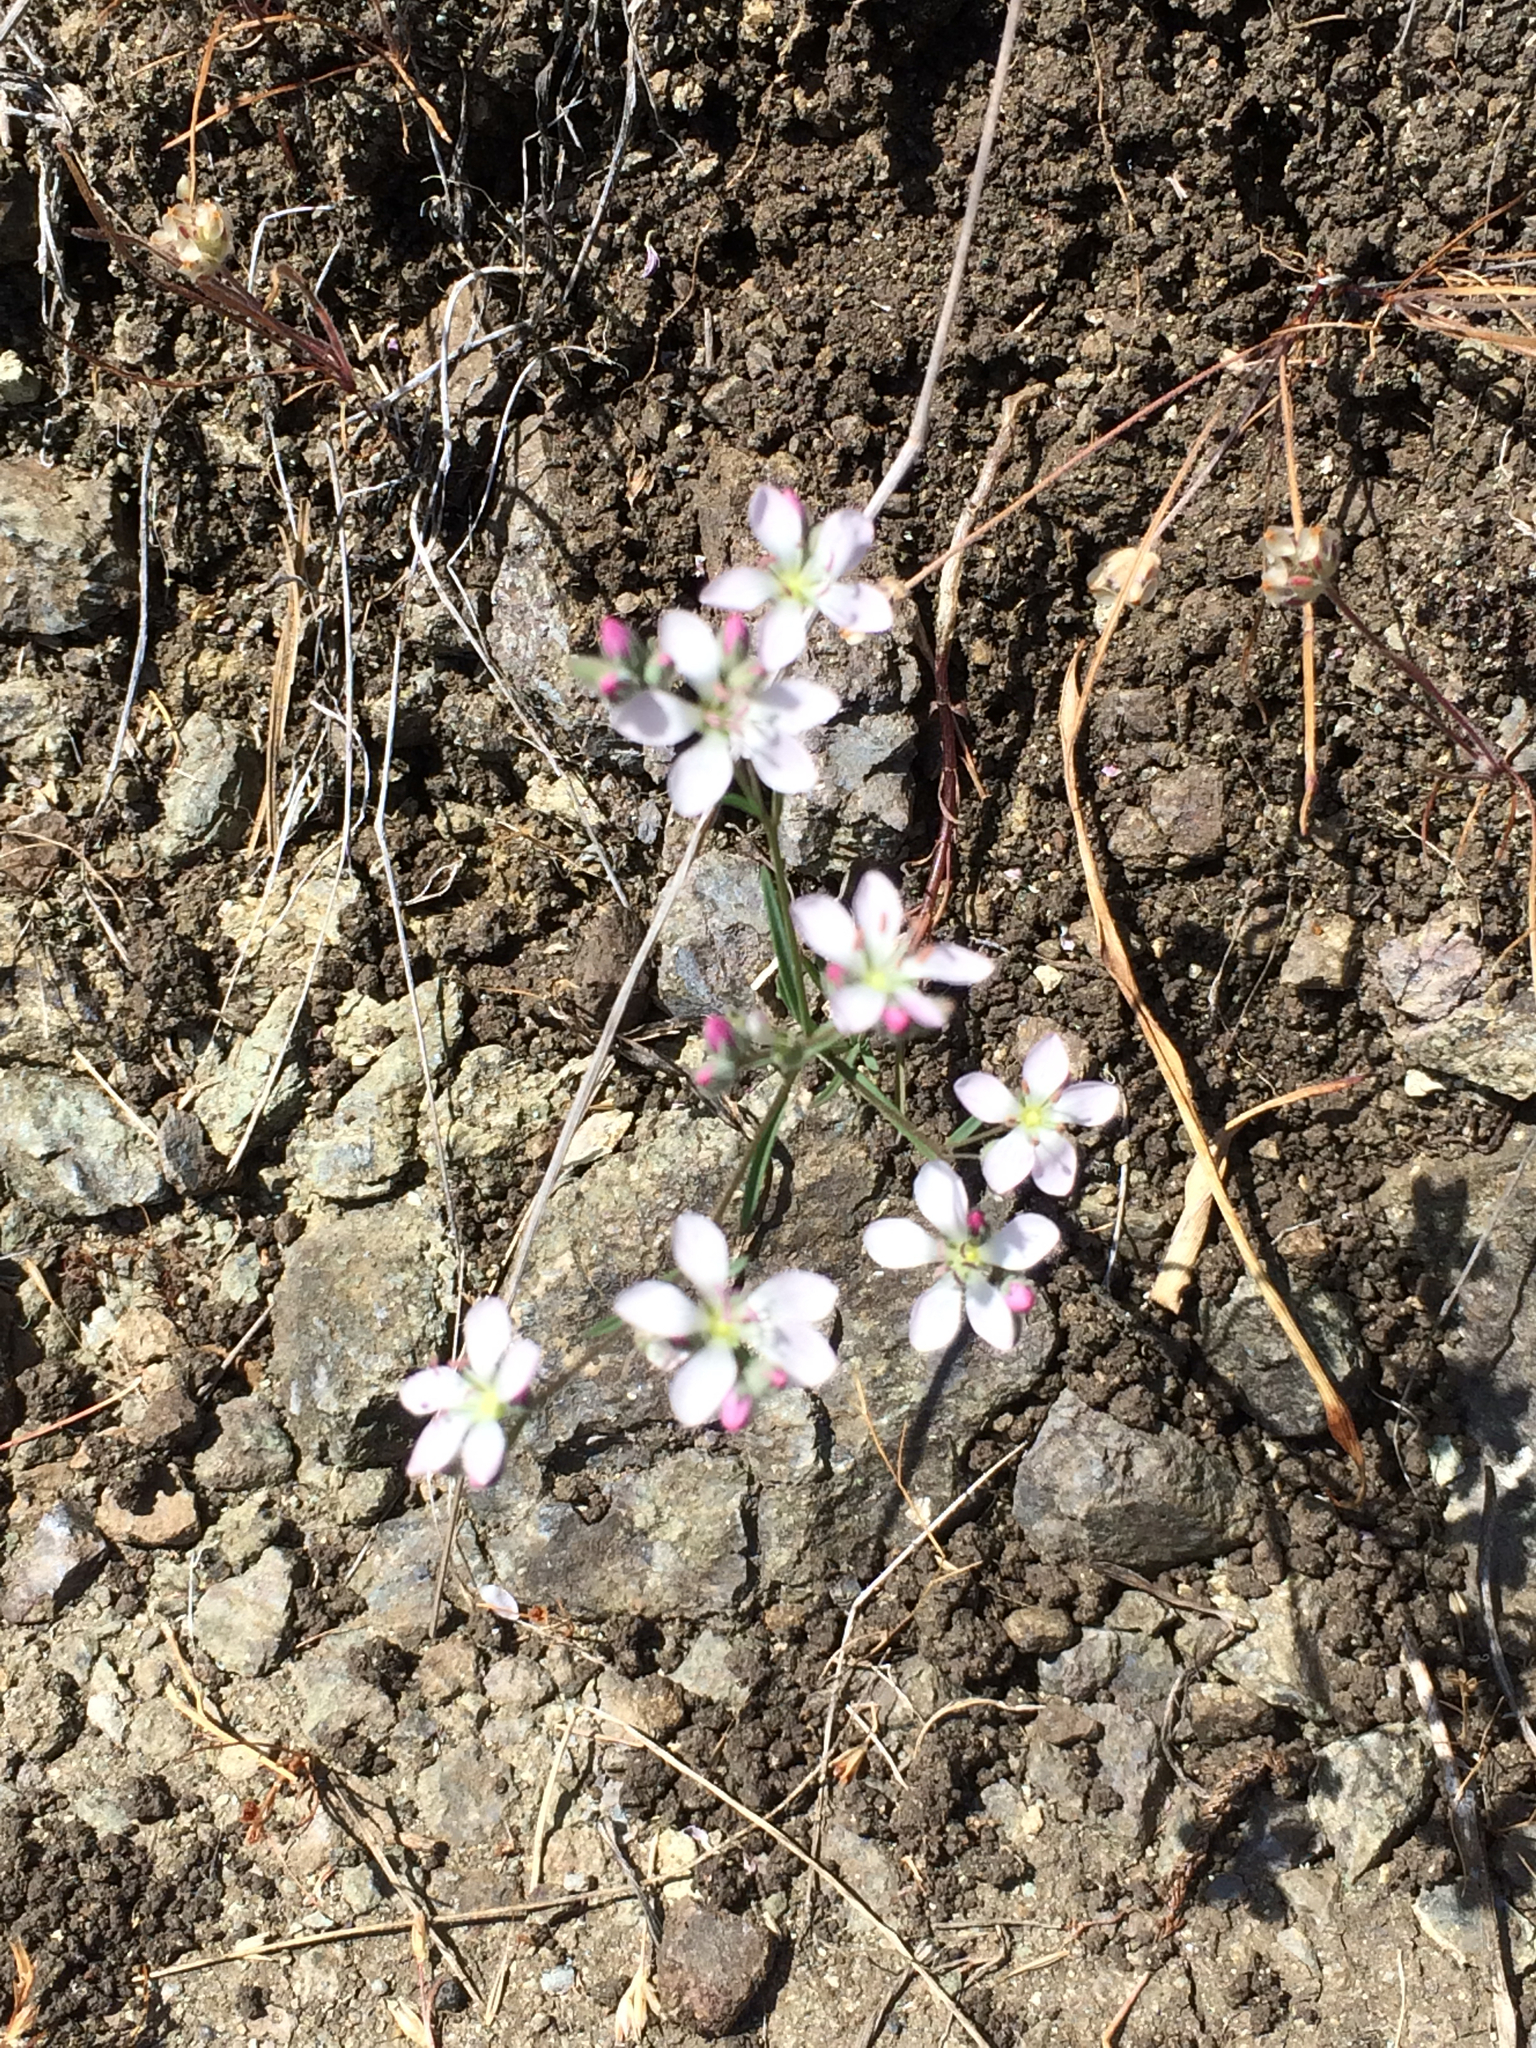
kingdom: Plantae
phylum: Tracheophyta
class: Magnoliopsida
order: Malpighiales
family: Linaceae
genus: Hesperolinon
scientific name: Hesperolinon congestum
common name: Marin dwarf-flax
